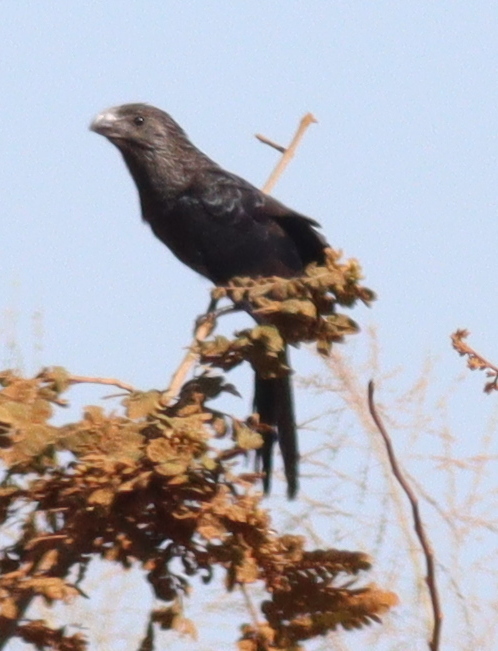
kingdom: Animalia
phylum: Chordata
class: Aves
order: Cuculiformes
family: Cuculidae
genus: Crotophaga
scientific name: Crotophaga ani
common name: Smooth-billed ani
